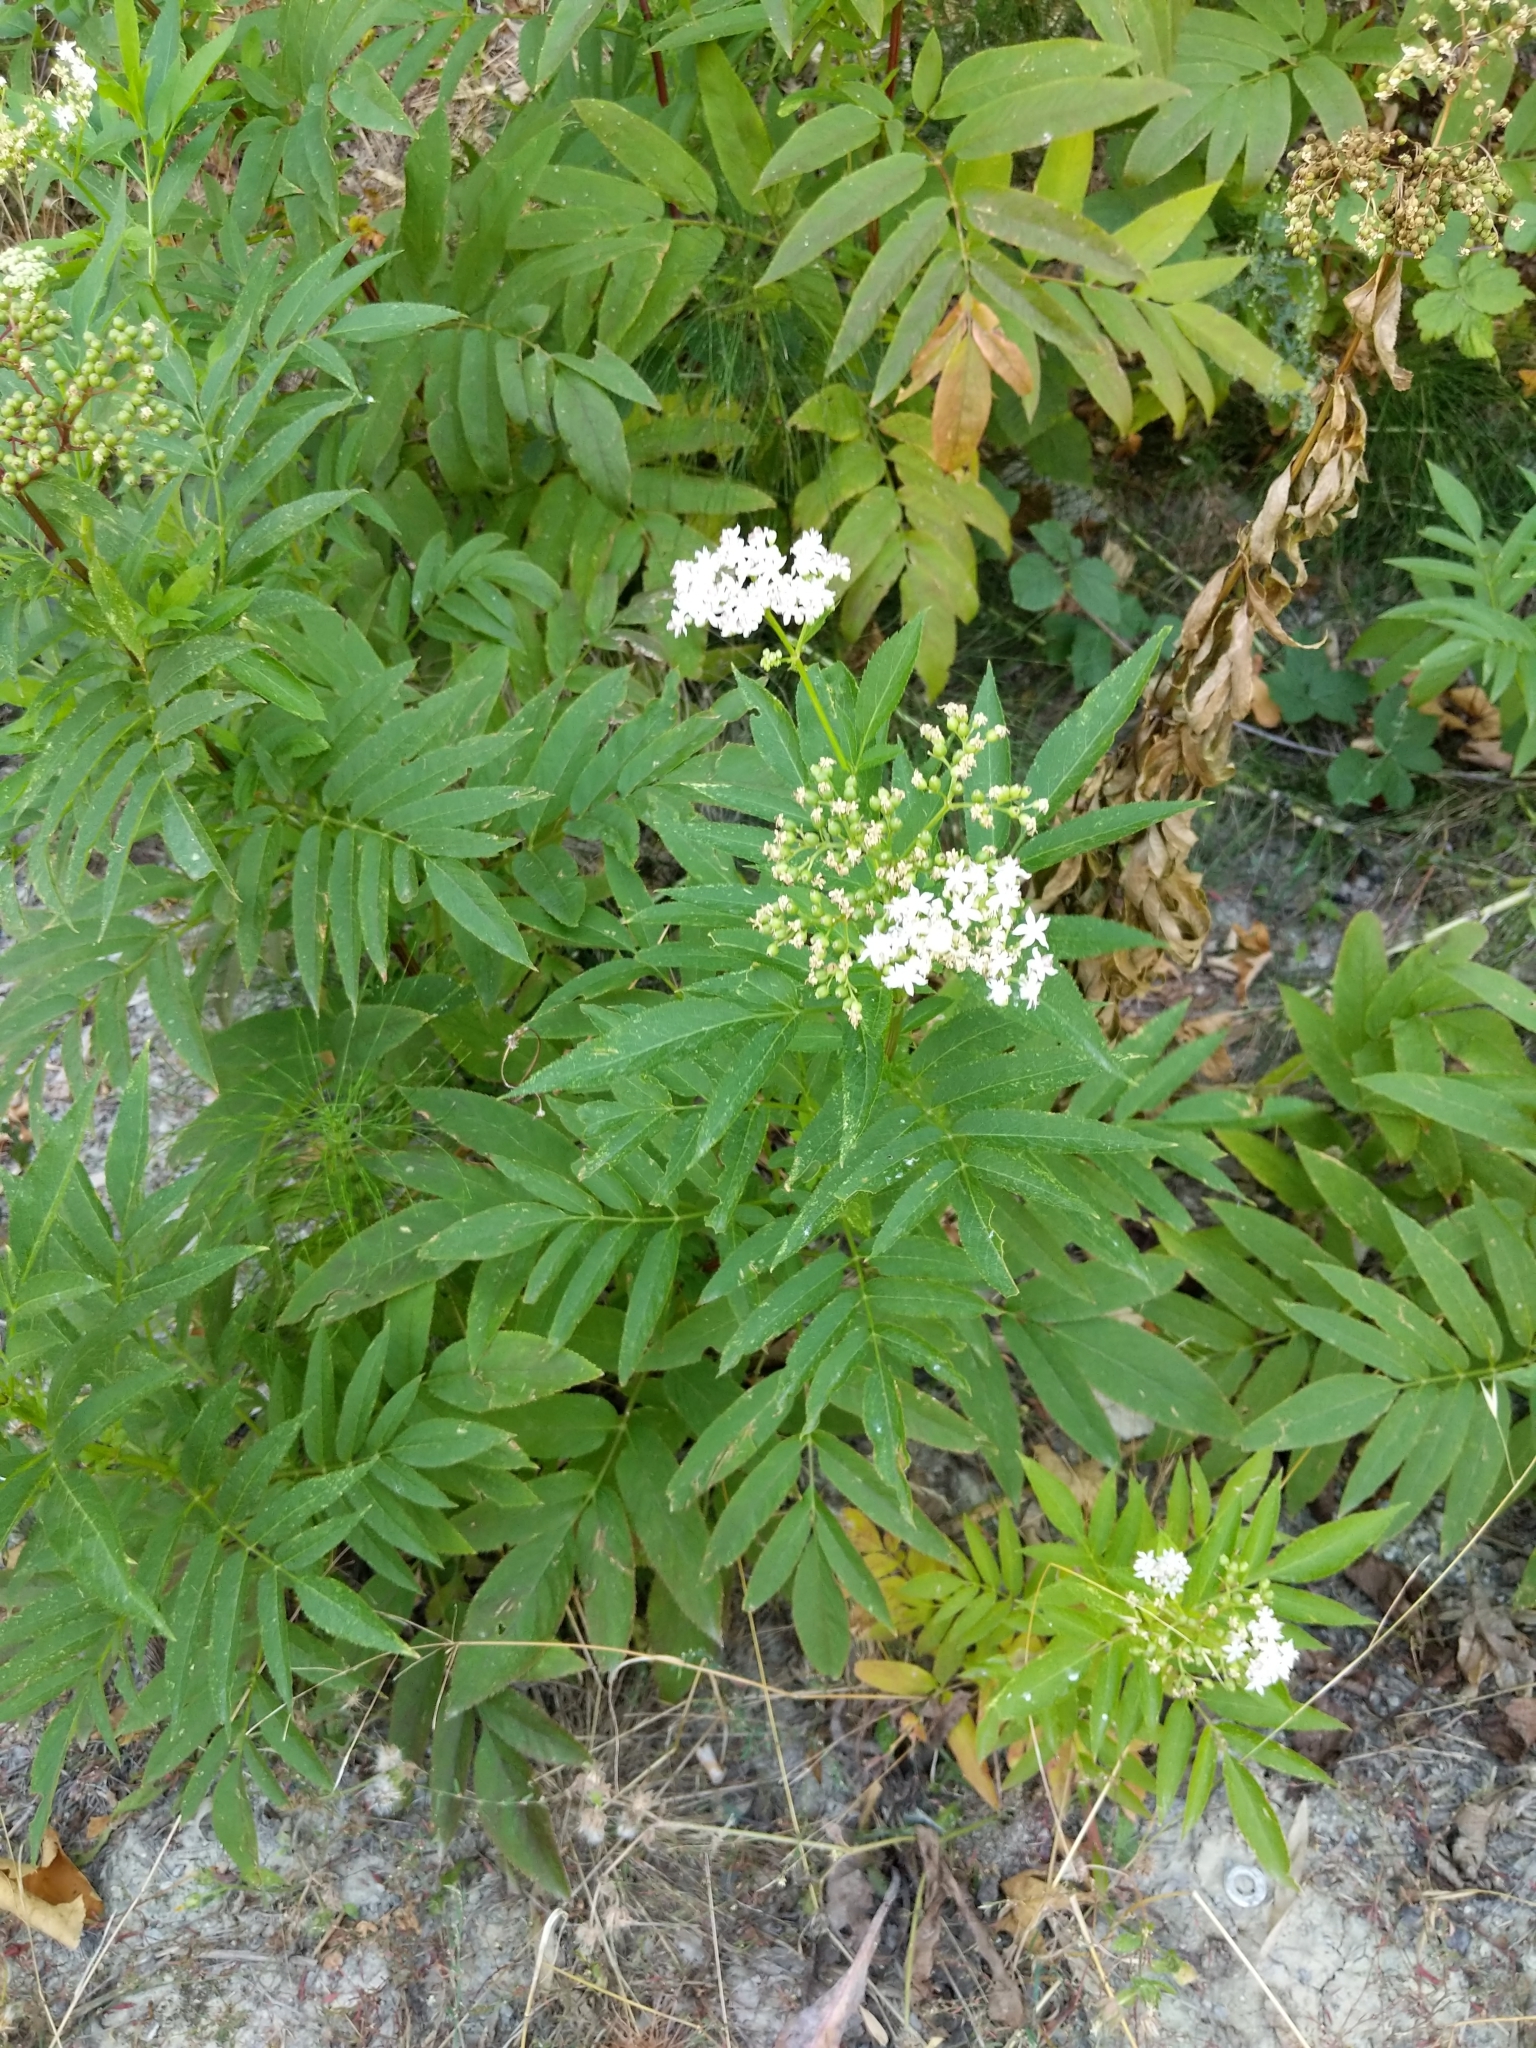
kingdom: Plantae
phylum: Tracheophyta
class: Magnoliopsida
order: Dipsacales
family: Viburnaceae
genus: Sambucus
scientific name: Sambucus ebulus
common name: Dwarf elder
